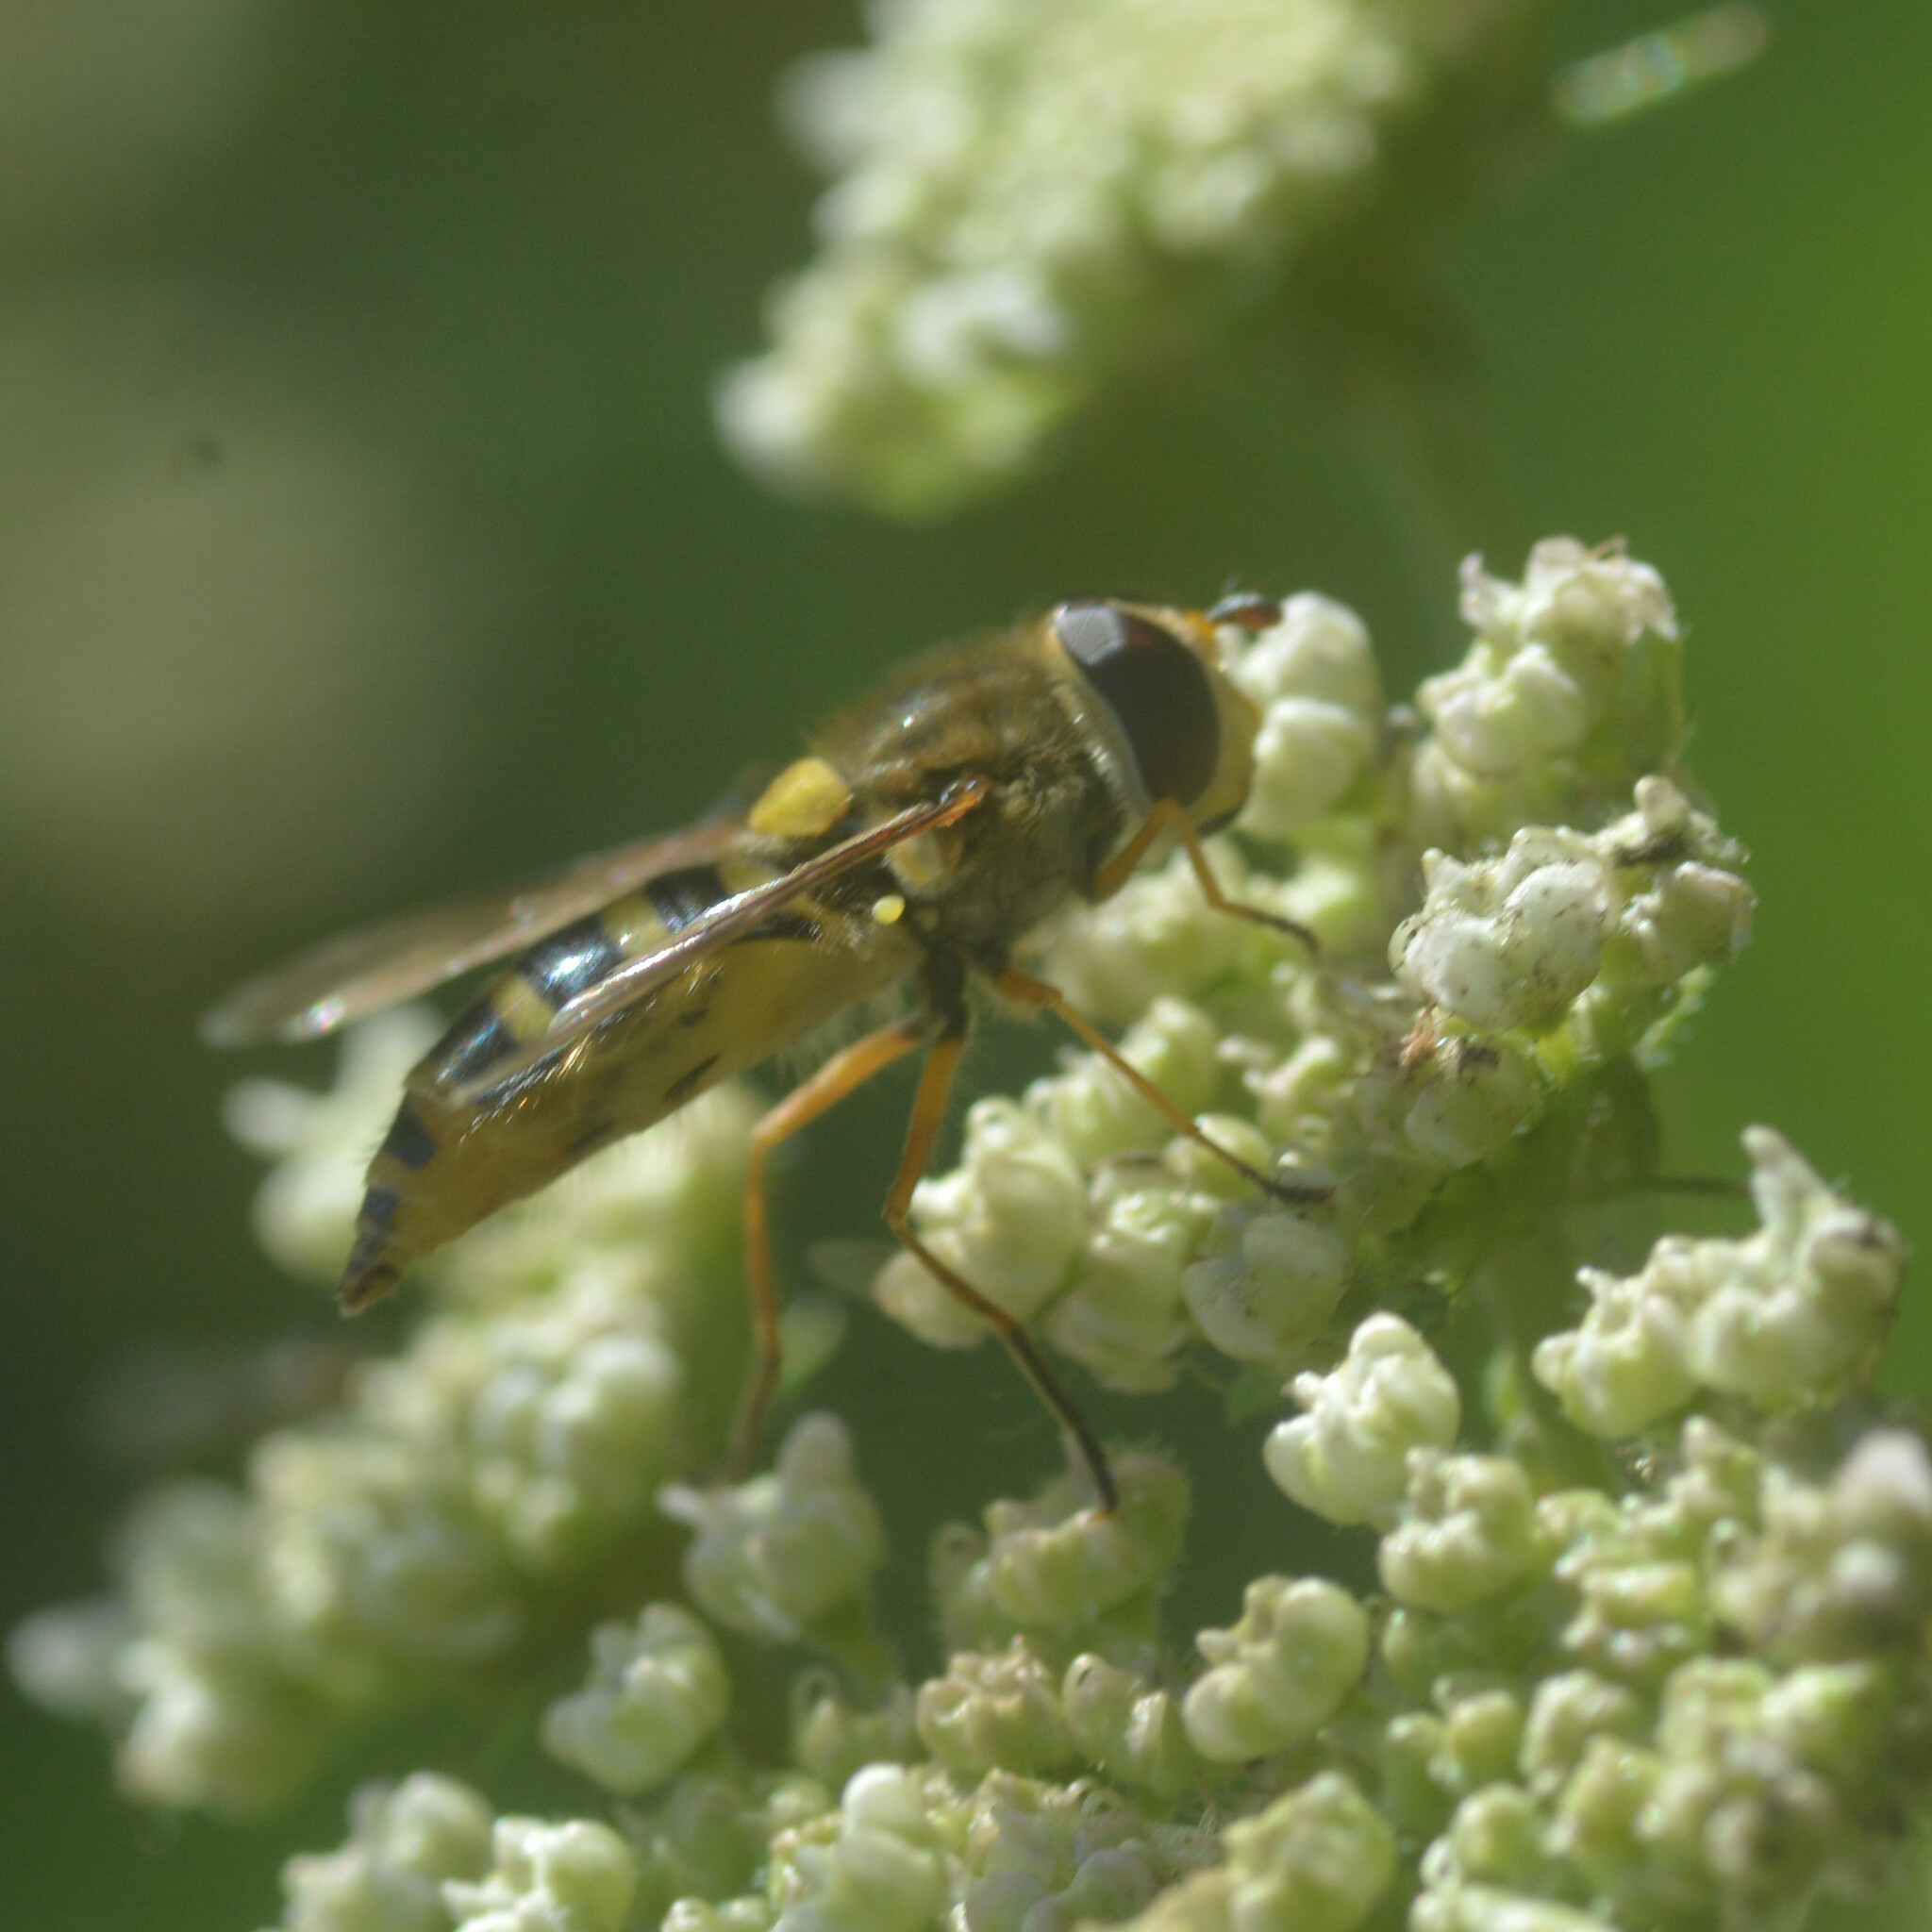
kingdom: Animalia
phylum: Arthropoda
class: Insecta
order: Diptera
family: Syrphidae
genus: Syrphus
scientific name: Syrphus ribesii
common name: Common flower fly
